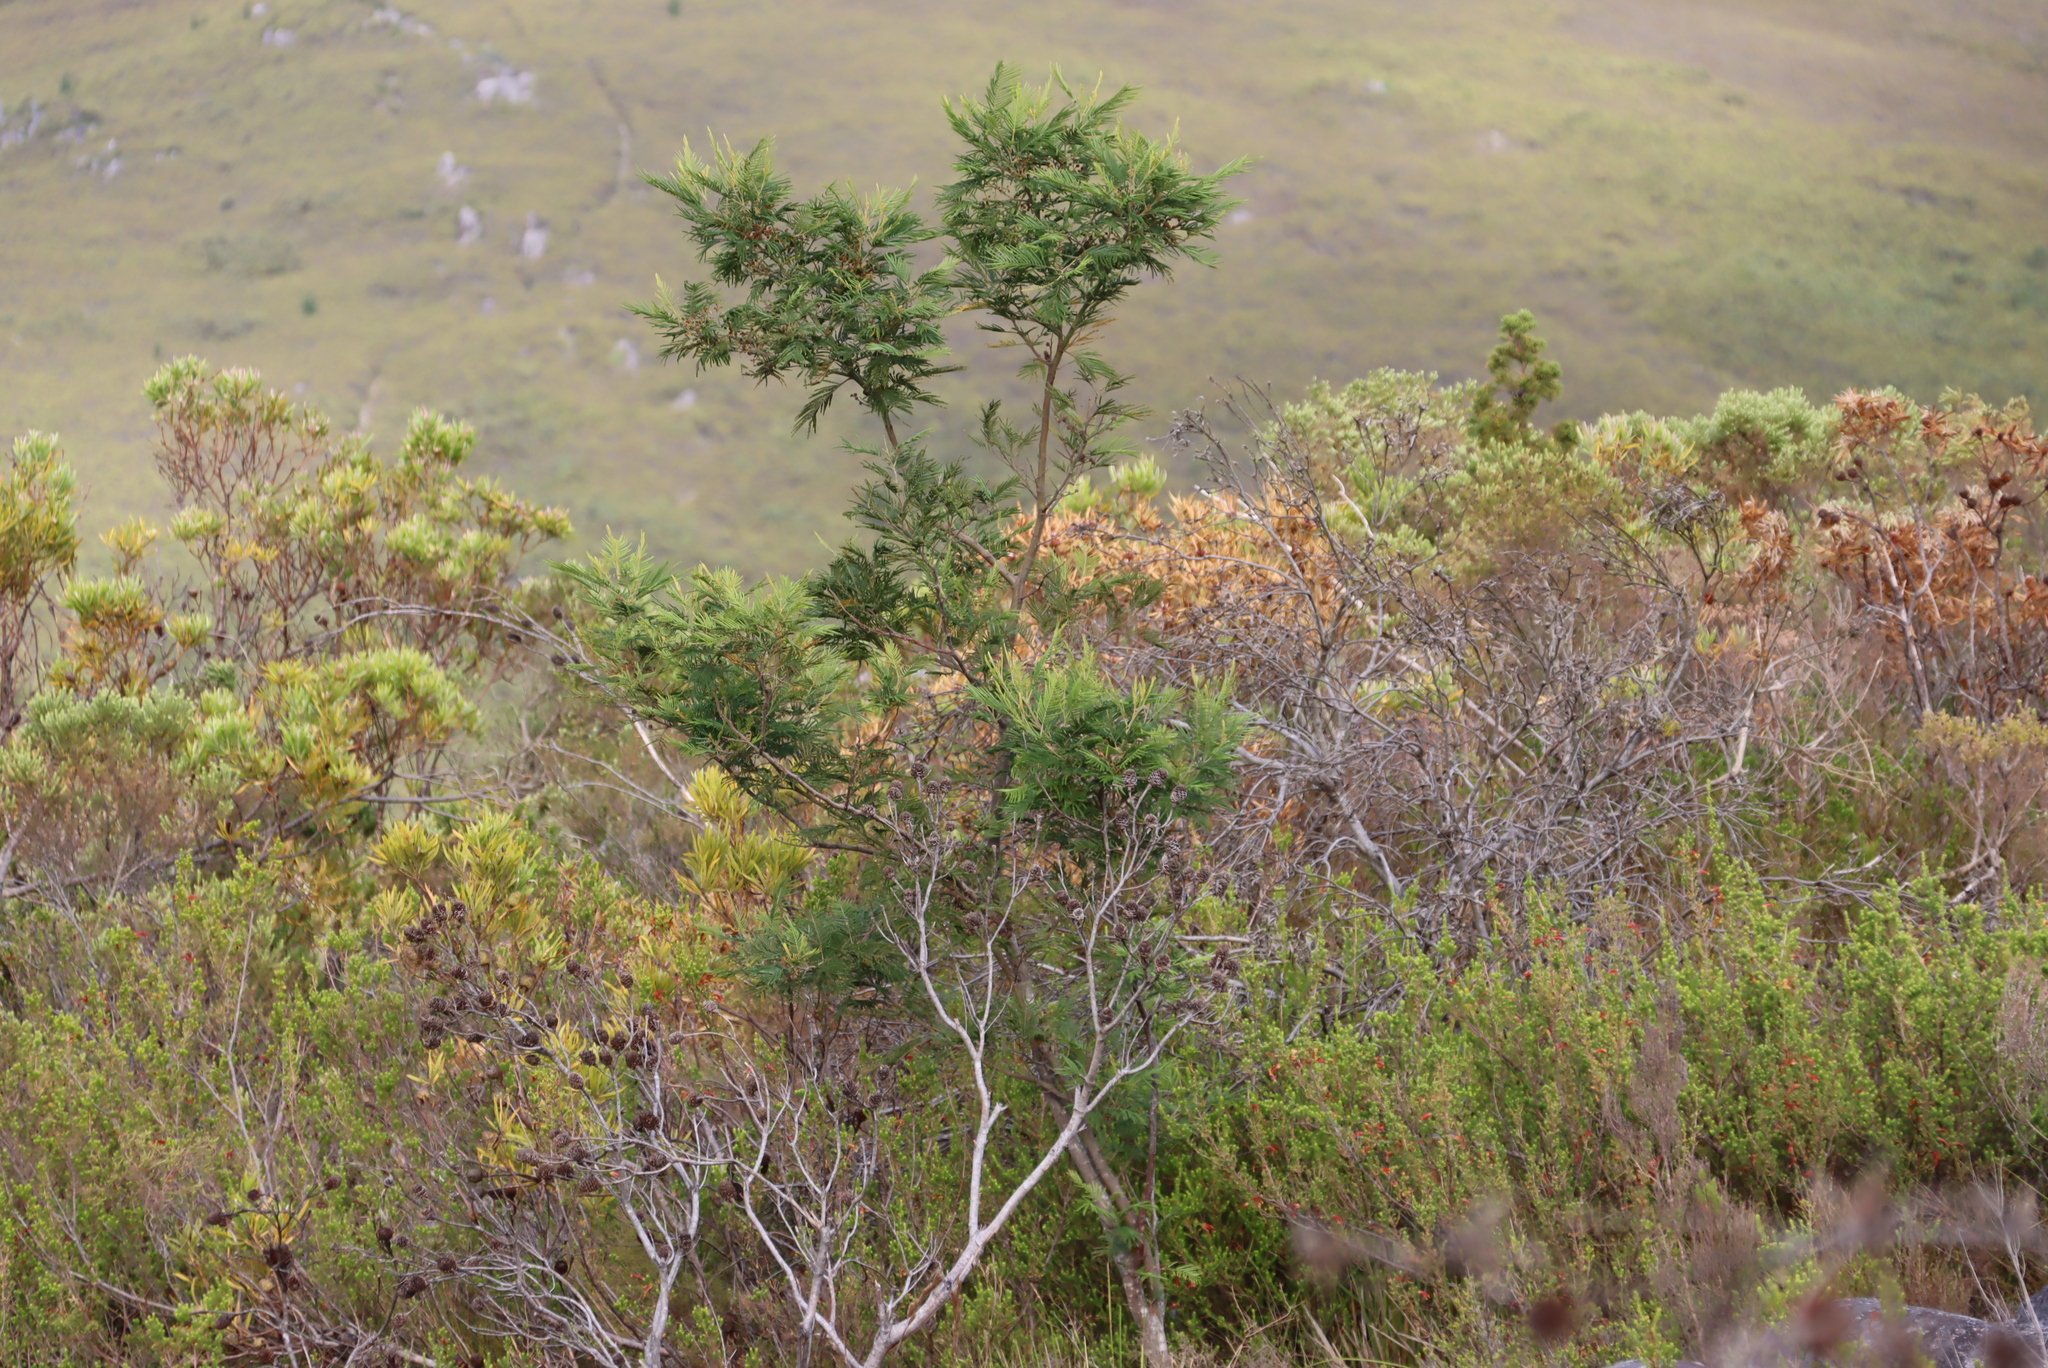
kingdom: Plantae
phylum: Tracheophyta
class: Magnoliopsida
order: Fabales
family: Fabaceae
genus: Acacia
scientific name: Acacia mearnsii
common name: Black wattle
